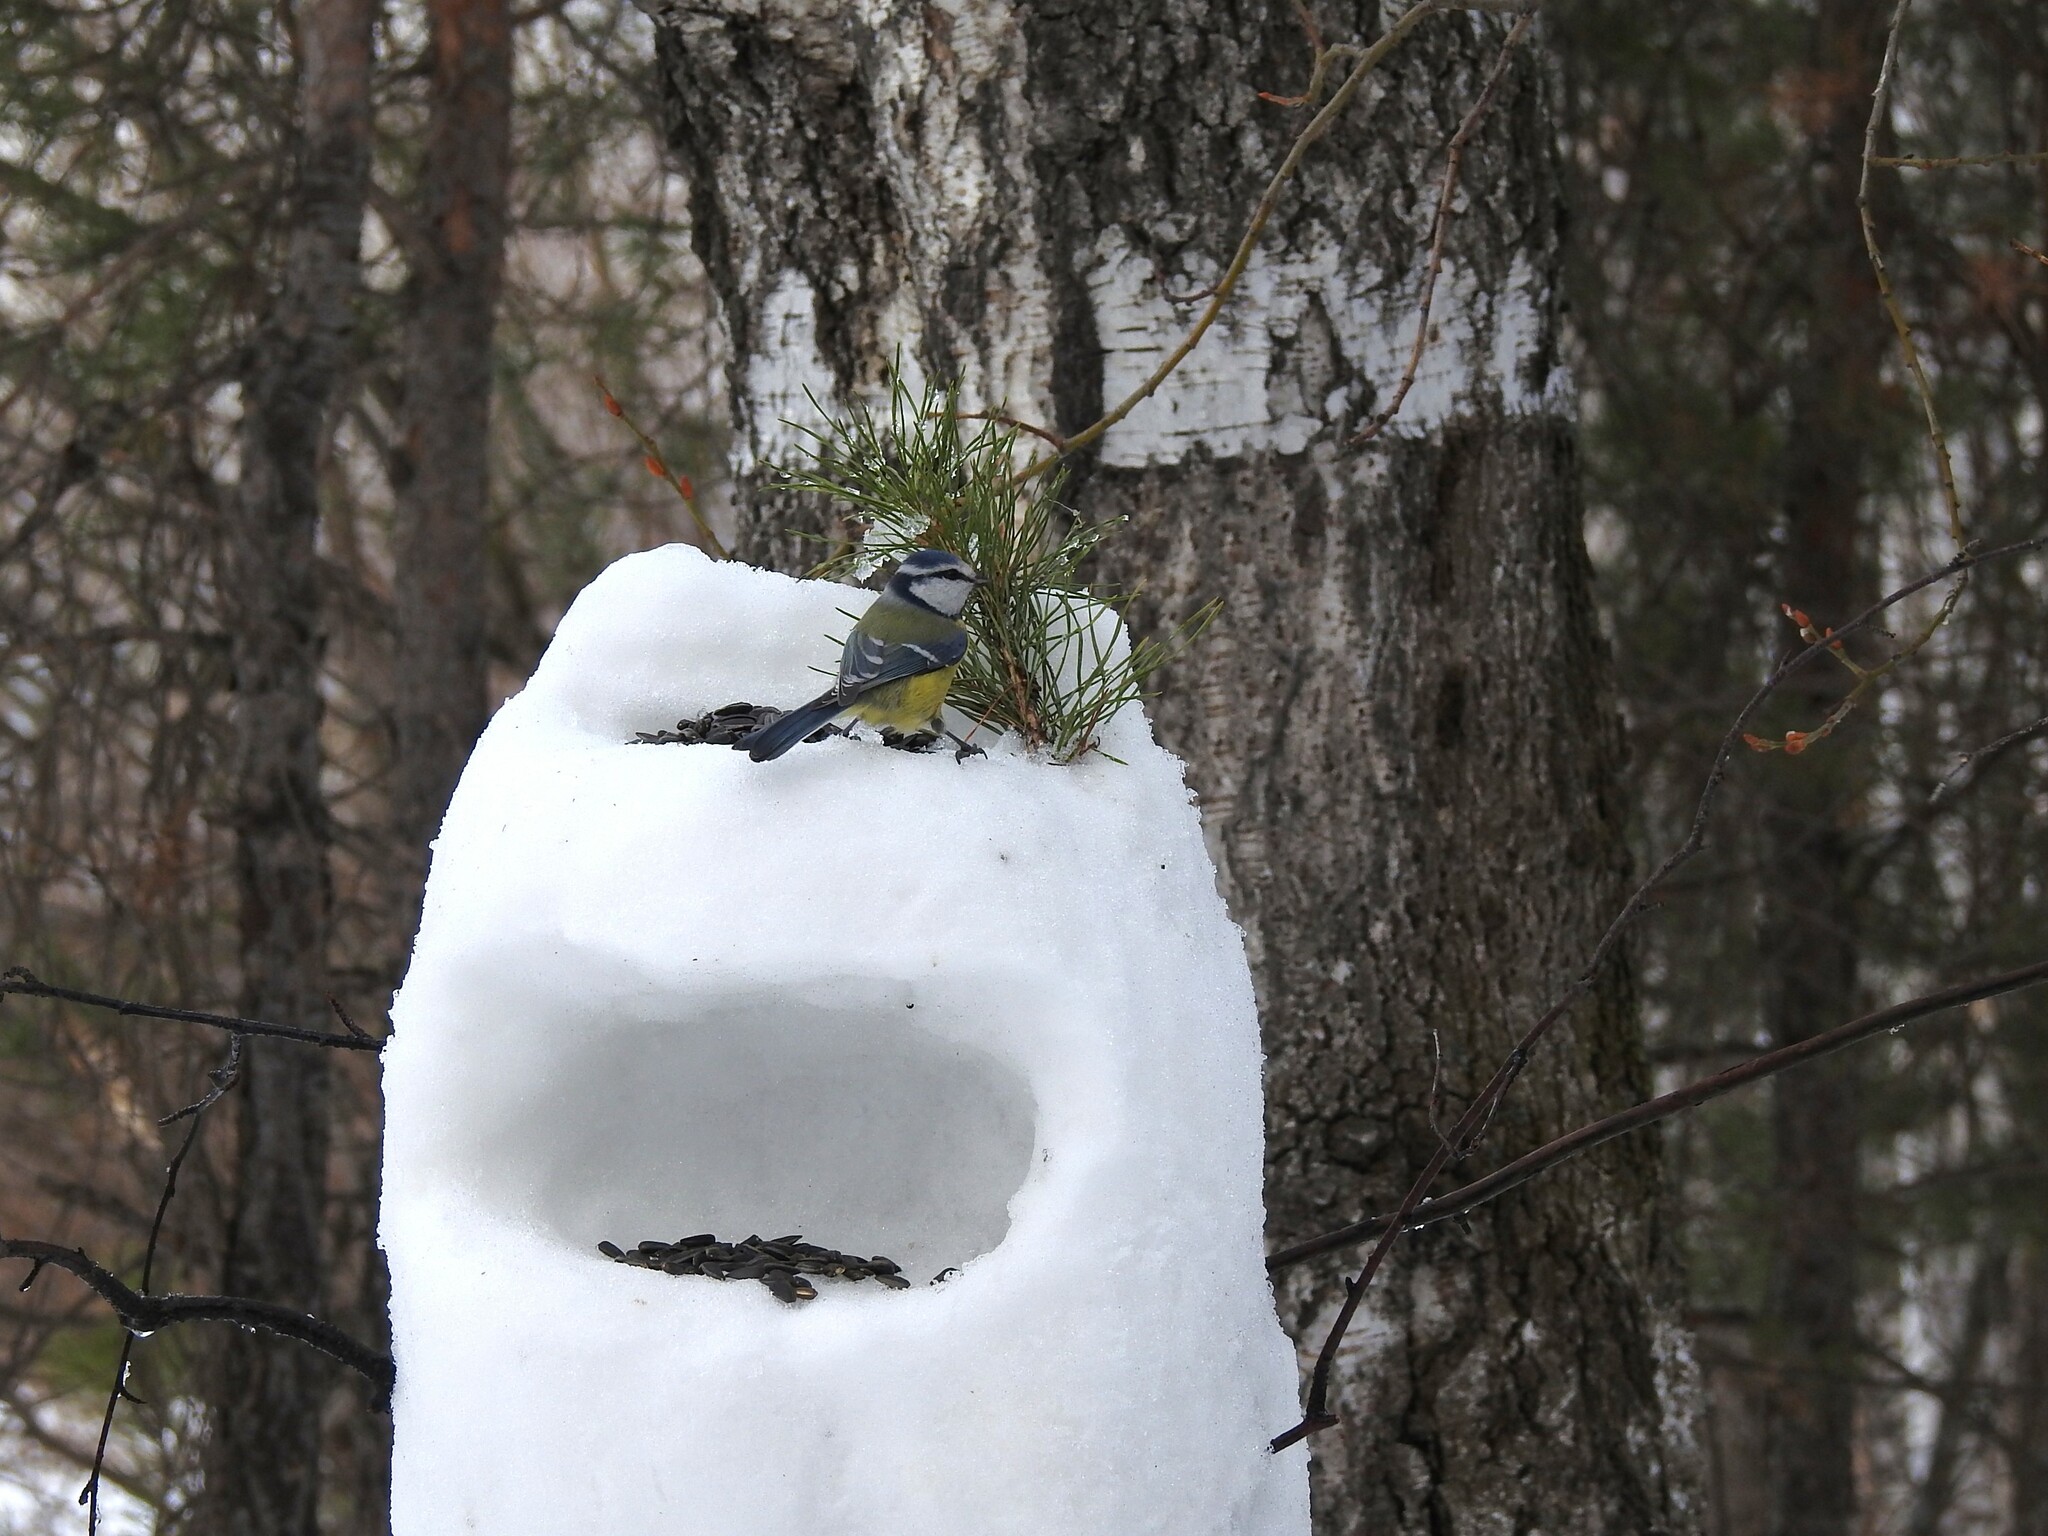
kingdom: Animalia
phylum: Chordata
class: Aves
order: Passeriformes
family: Paridae
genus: Cyanistes
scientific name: Cyanistes caeruleus
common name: Eurasian blue tit
